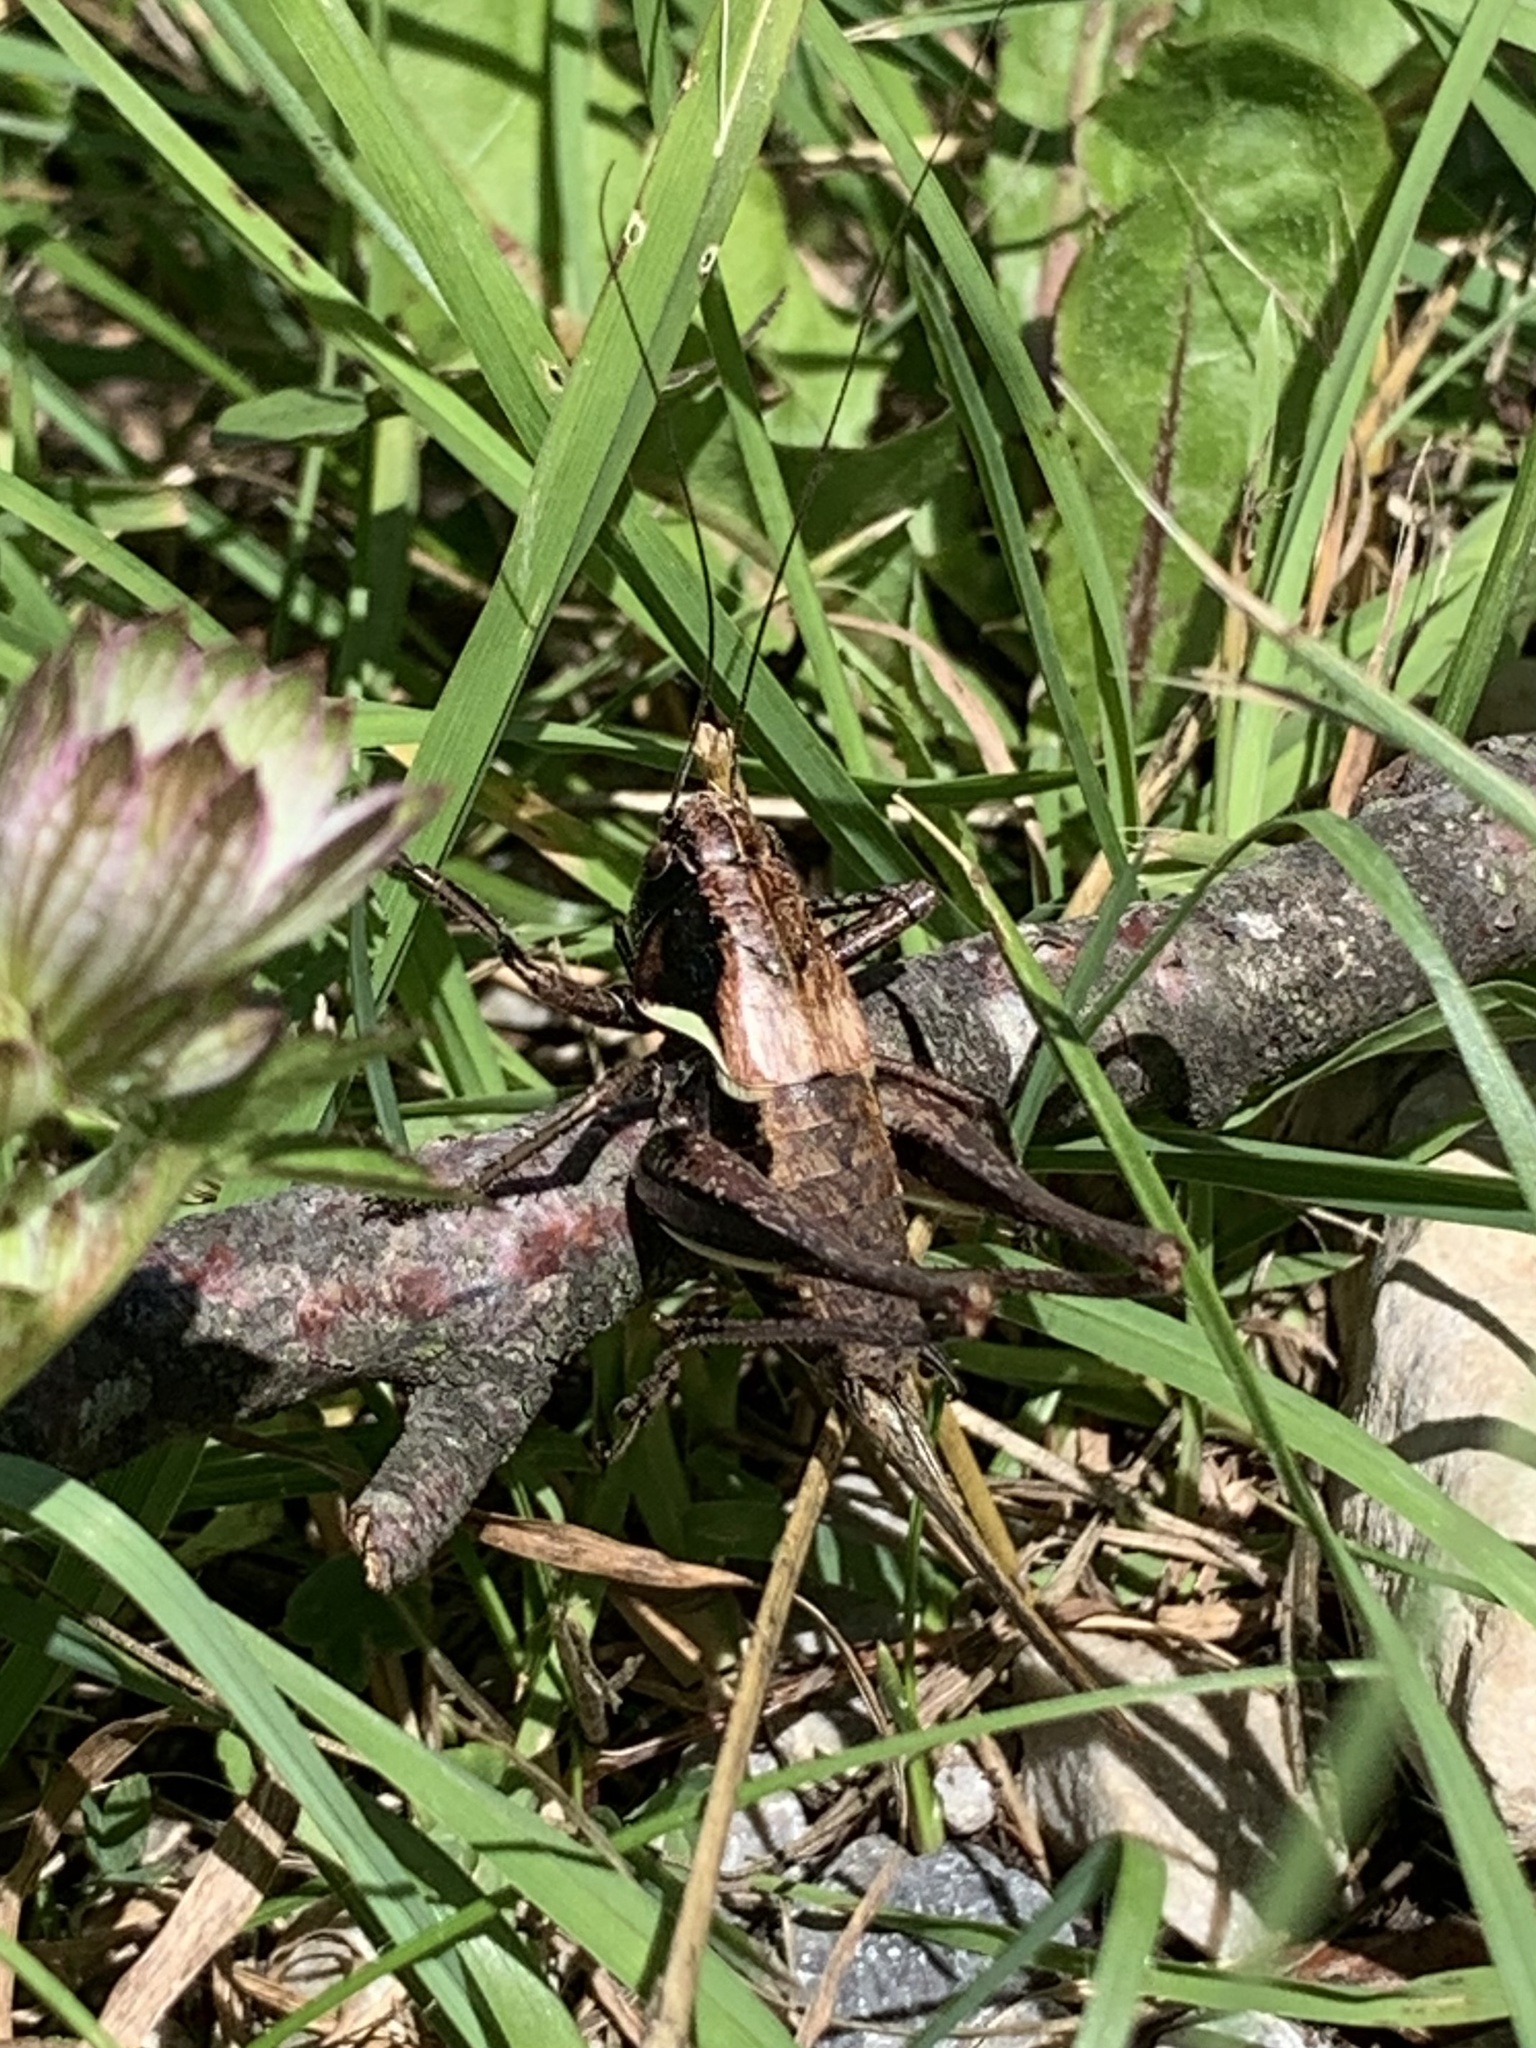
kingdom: Animalia
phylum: Arthropoda
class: Insecta
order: Orthoptera
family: Tettigoniidae
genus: Pholidoptera
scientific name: Pholidoptera aptera
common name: Alpine dark bush-cricket
